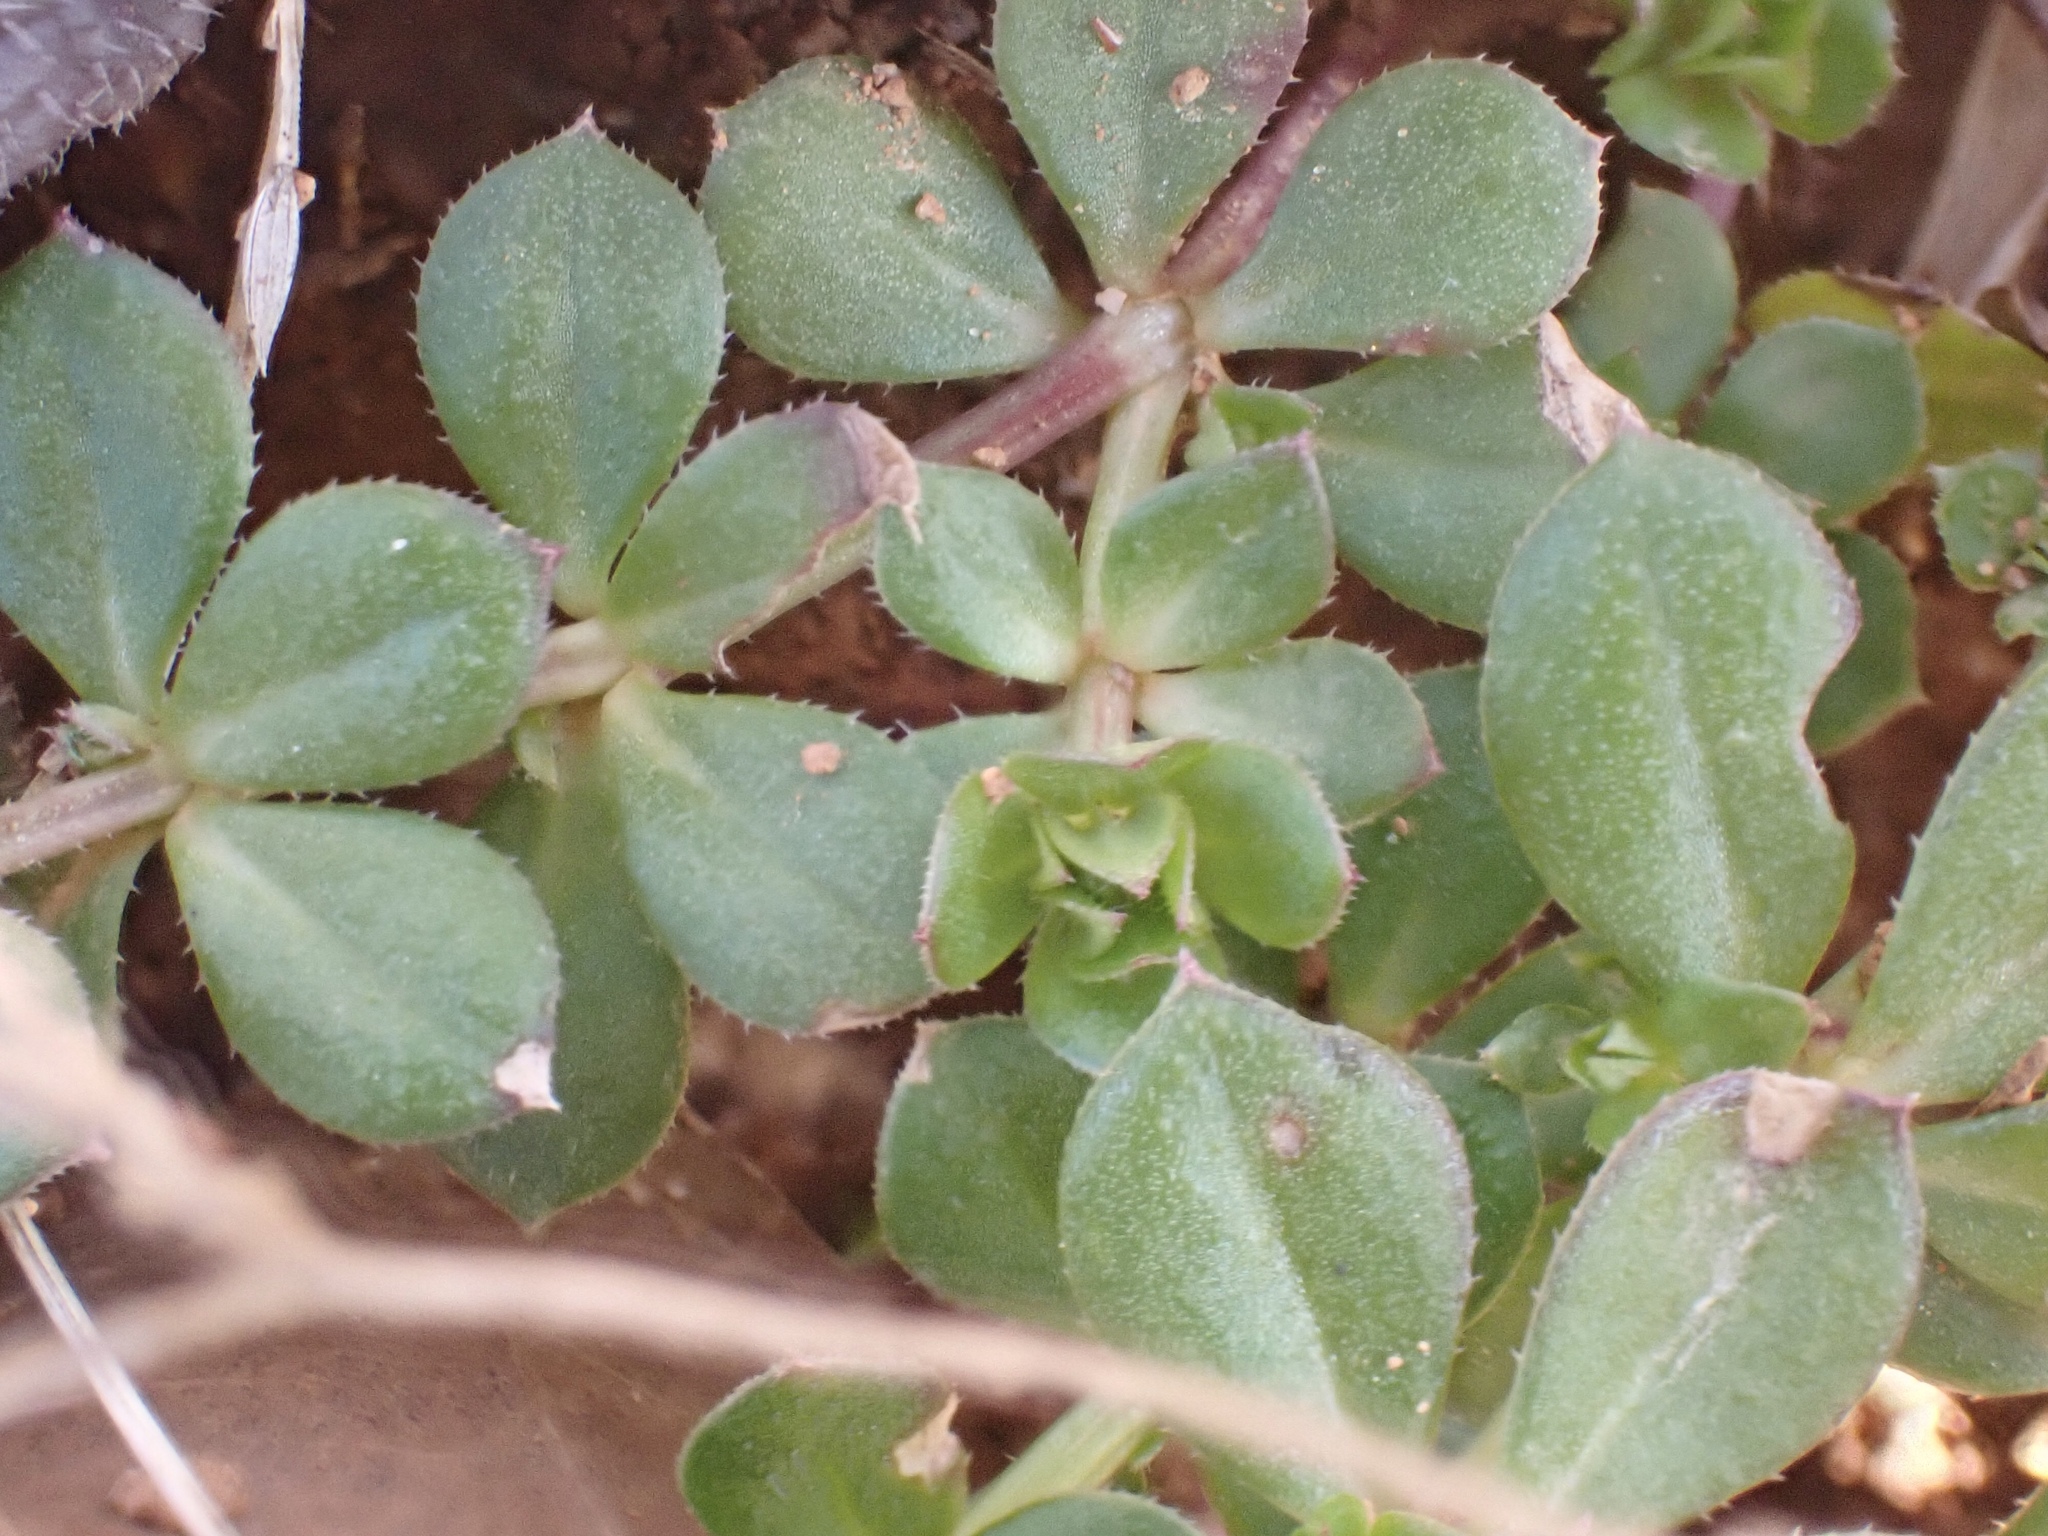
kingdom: Plantae
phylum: Tracheophyta
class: Magnoliopsida
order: Gentianales
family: Rubiaceae
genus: Sherardia
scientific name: Sherardia arvensis
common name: Field madder
